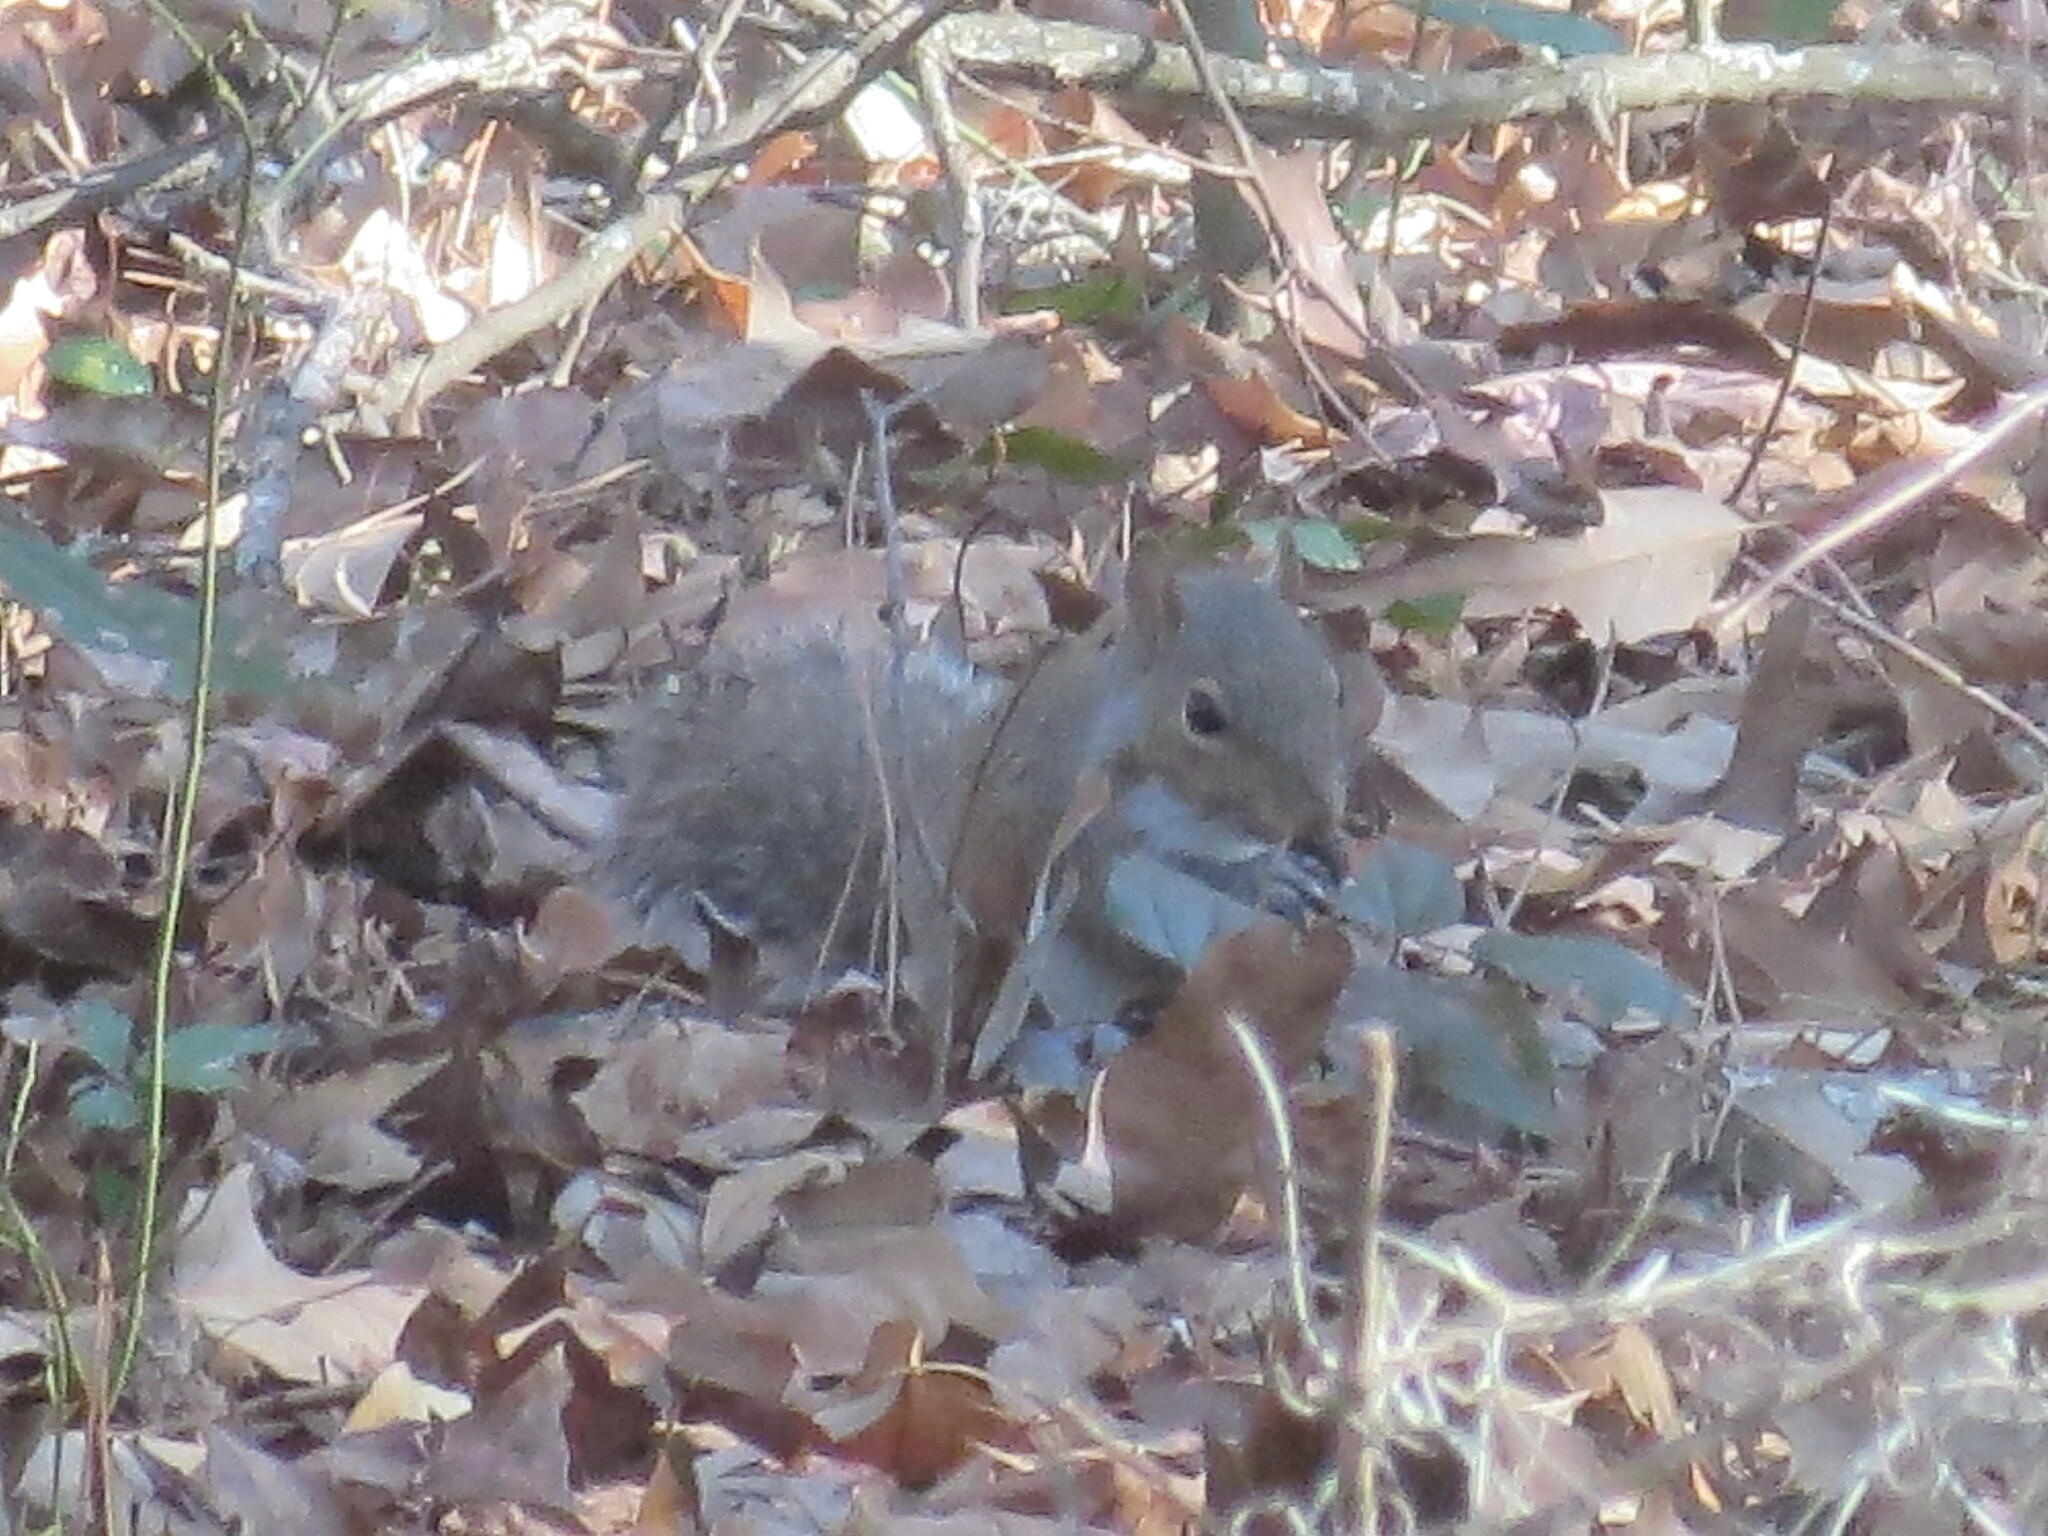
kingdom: Animalia
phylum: Chordata
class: Mammalia
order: Rodentia
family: Sciuridae
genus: Sciurus
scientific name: Sciurus carolinensis
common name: Eastern gray squirrel
